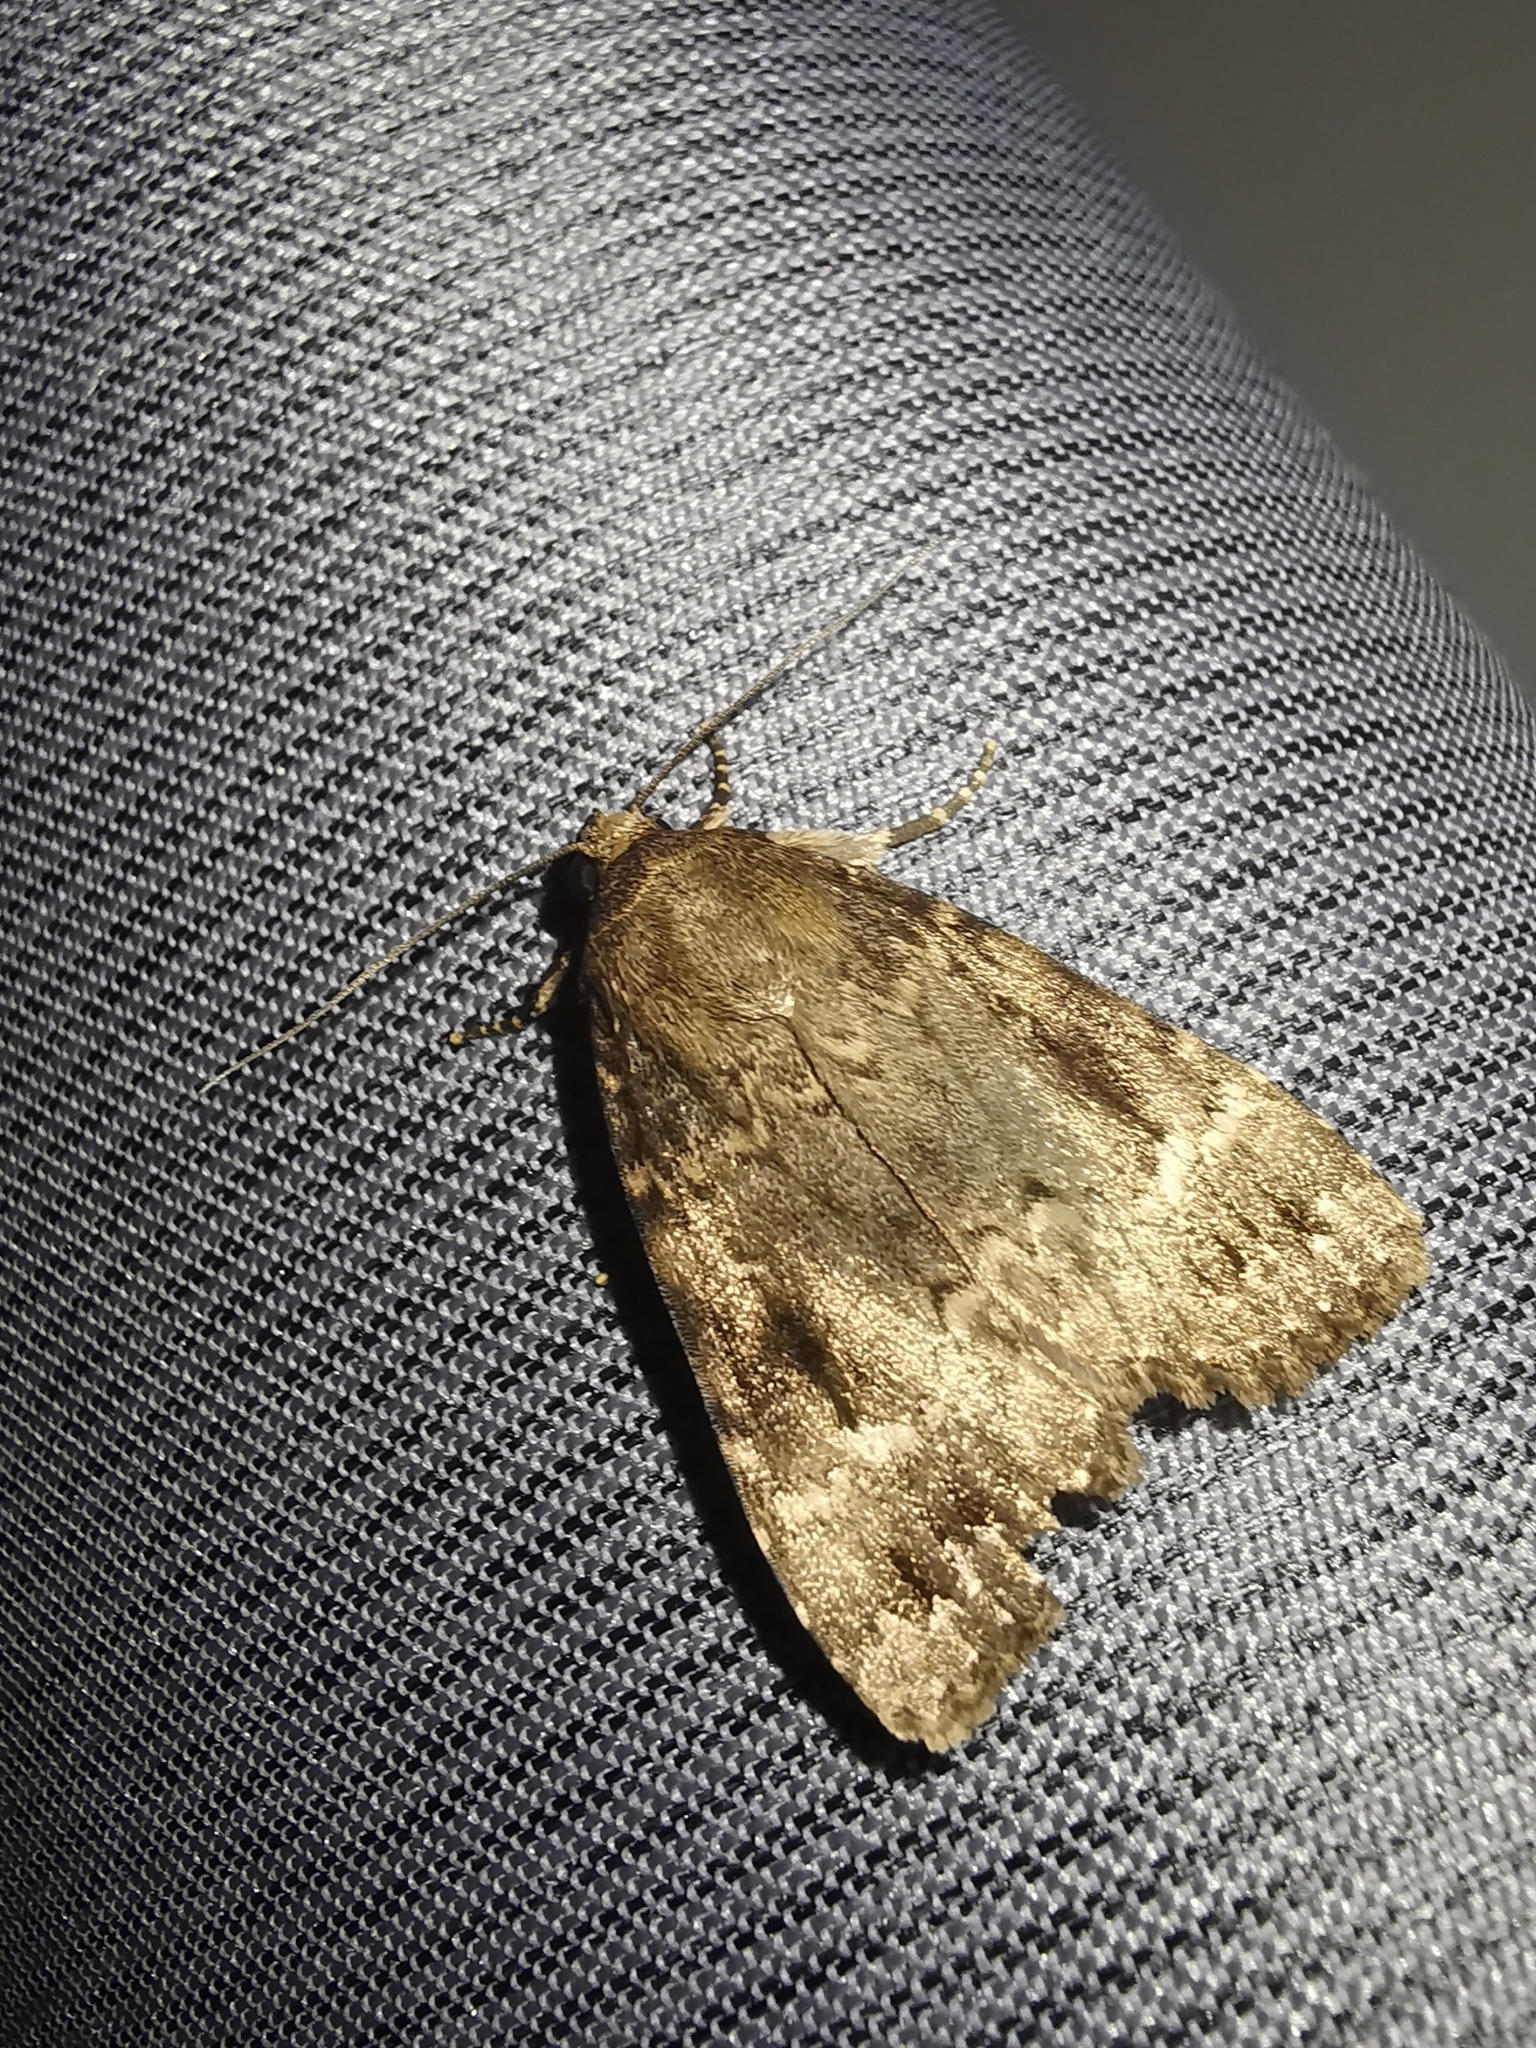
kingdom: Animalia
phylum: Arthropoda
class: Insecta
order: Lepidoptera
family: Noctuidae
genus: Amphipyra
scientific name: Amphipyra pyramidea
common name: Copper underwing
